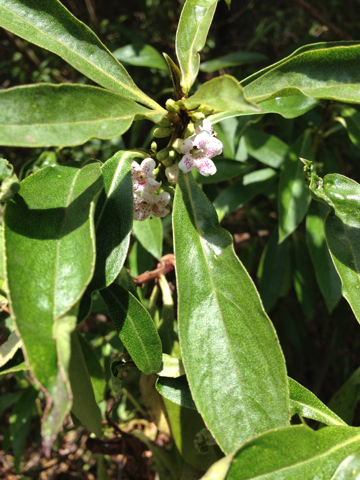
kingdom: Plantae
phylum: Tracheophyta
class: Magnoliopsida
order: Lamiales
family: Scrophulariaceae
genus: Myoporum
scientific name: Myoporum laetum
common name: Ngaio tree
